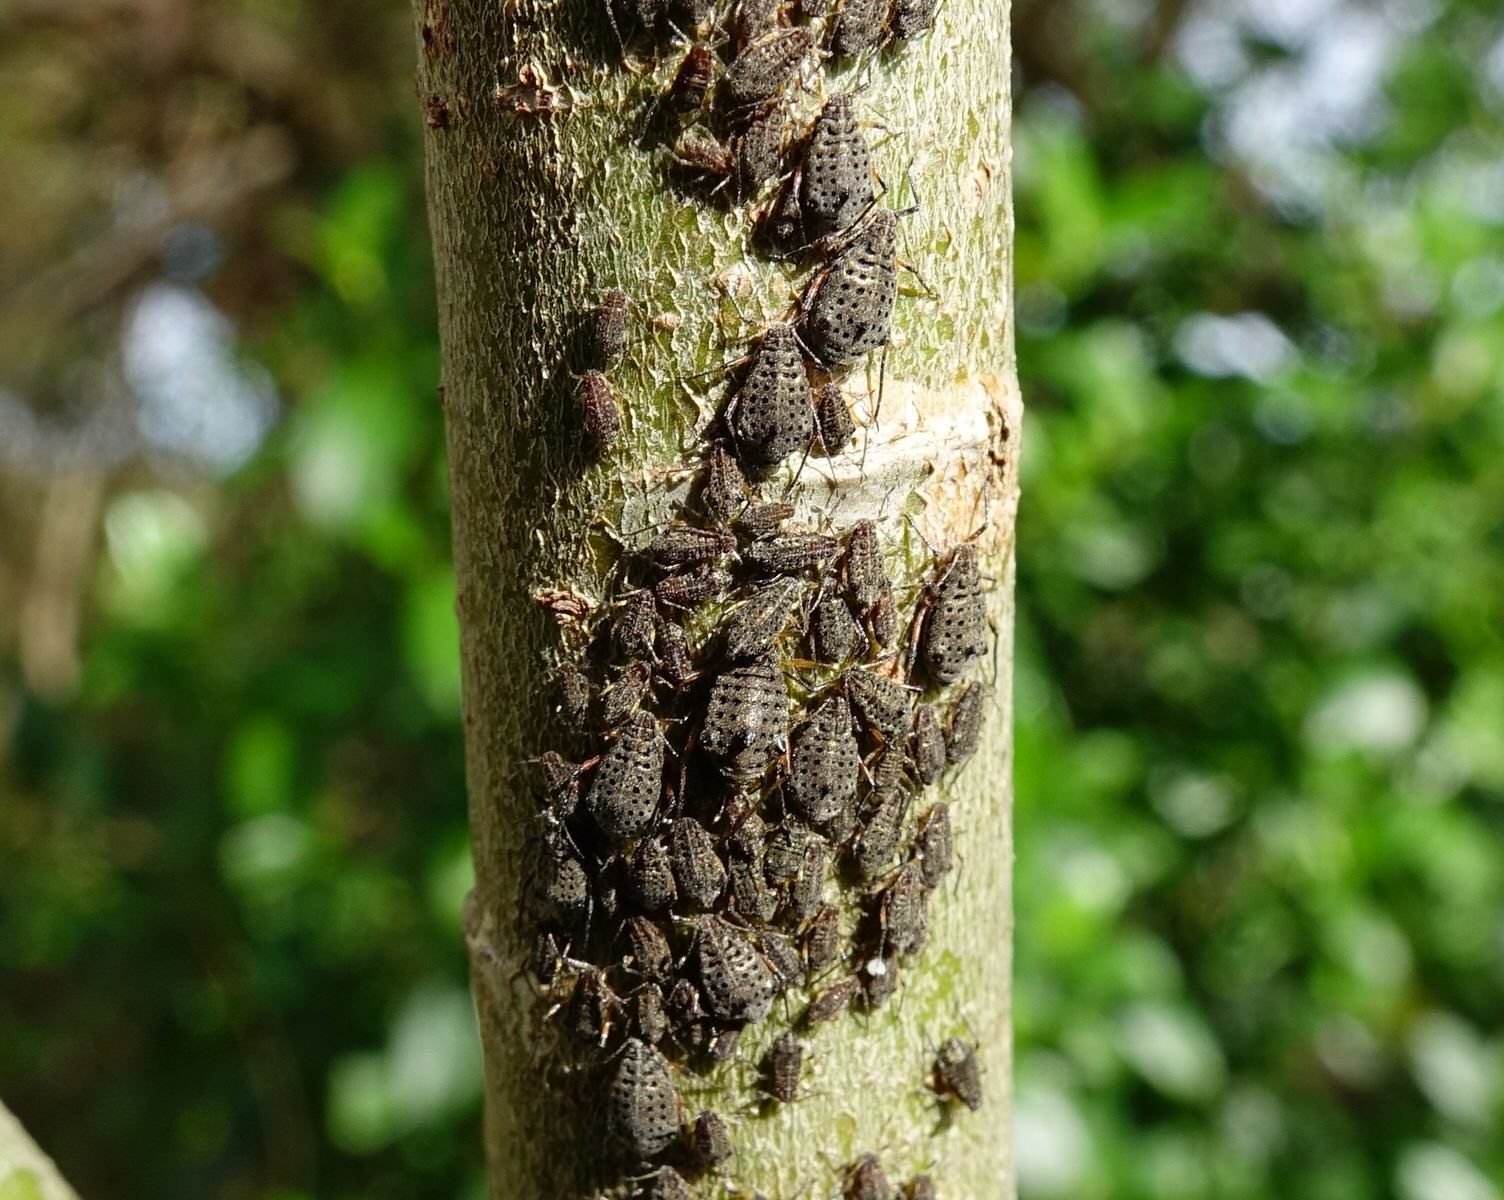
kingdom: Animalia
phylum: Arthropoda
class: Insecta
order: Hemiptera
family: Aphididae
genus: Tuberolachnus
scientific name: Tuberolachnus salignus
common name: Giant willow aphid
